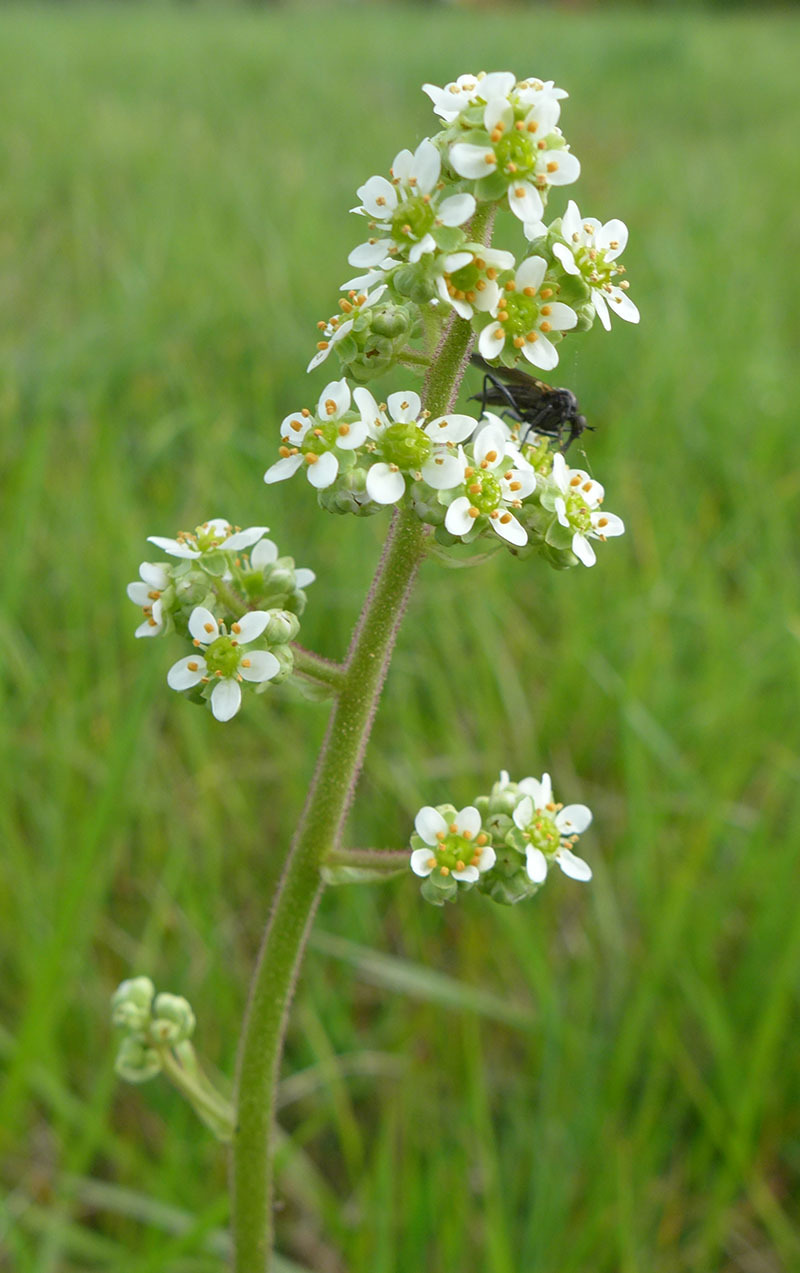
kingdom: Plantae
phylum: Tracheophyta
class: Magnoliopsida
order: Saxifragales
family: Saxifragaceae
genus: Micranthes
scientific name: Micranthes oregana
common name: Bog saxifrage
